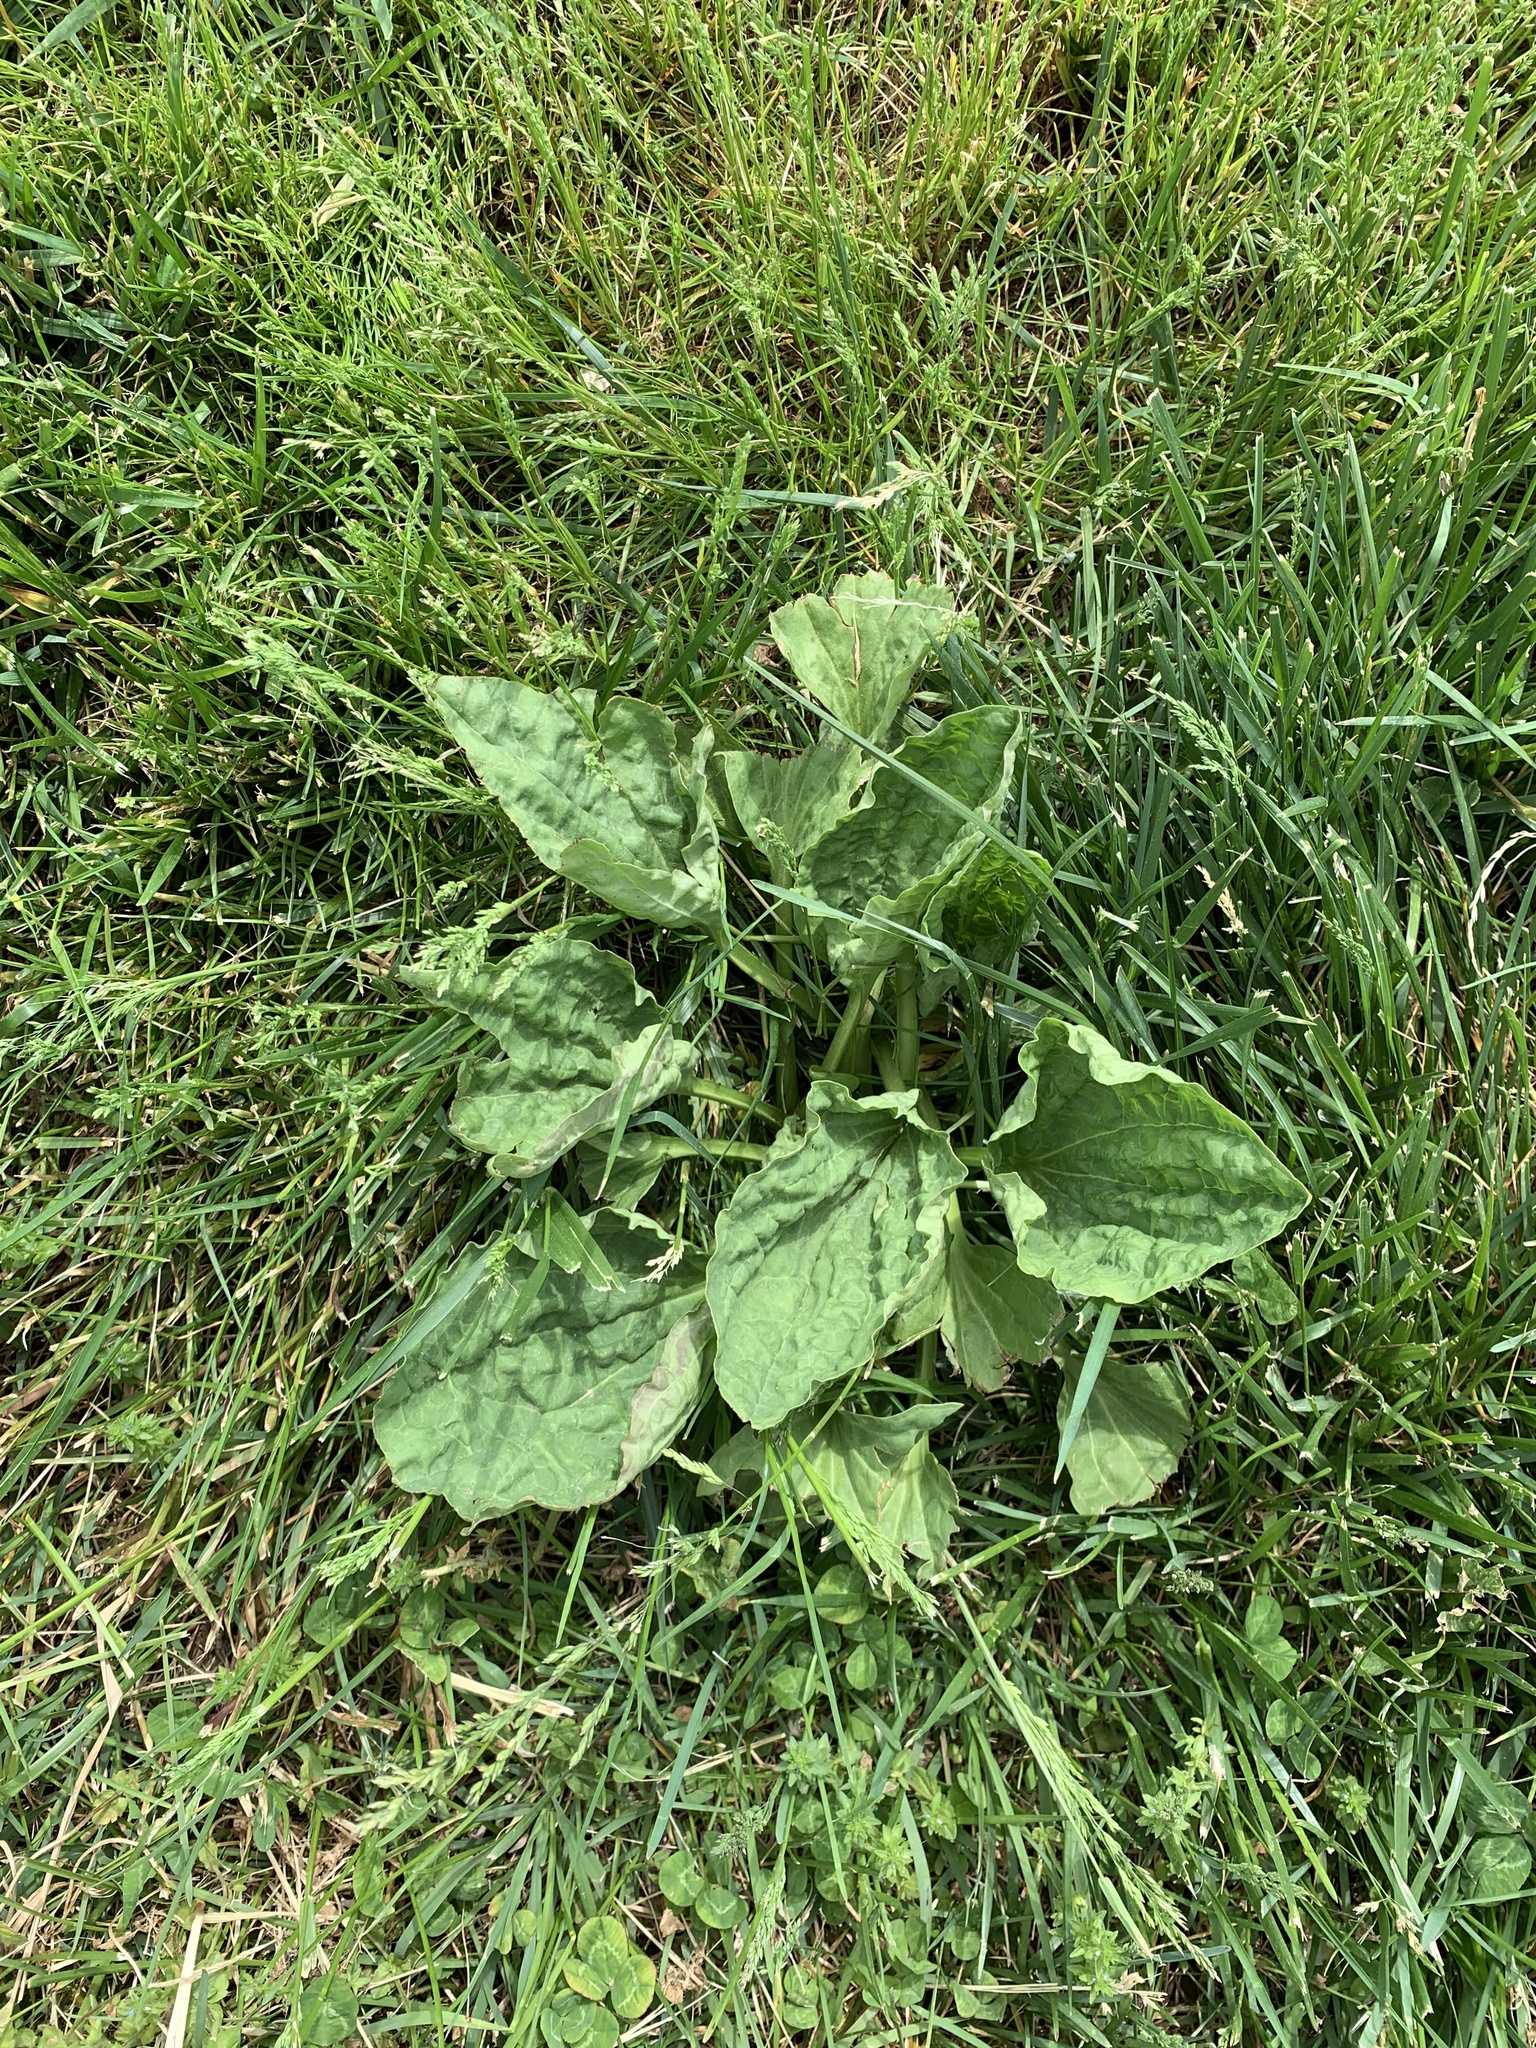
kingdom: Plantae
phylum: Tracheophyta
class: Magnoliopsida
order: Lamiales
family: Plantaginaceae
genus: Plantago
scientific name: Plantago major
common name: Common plantain
